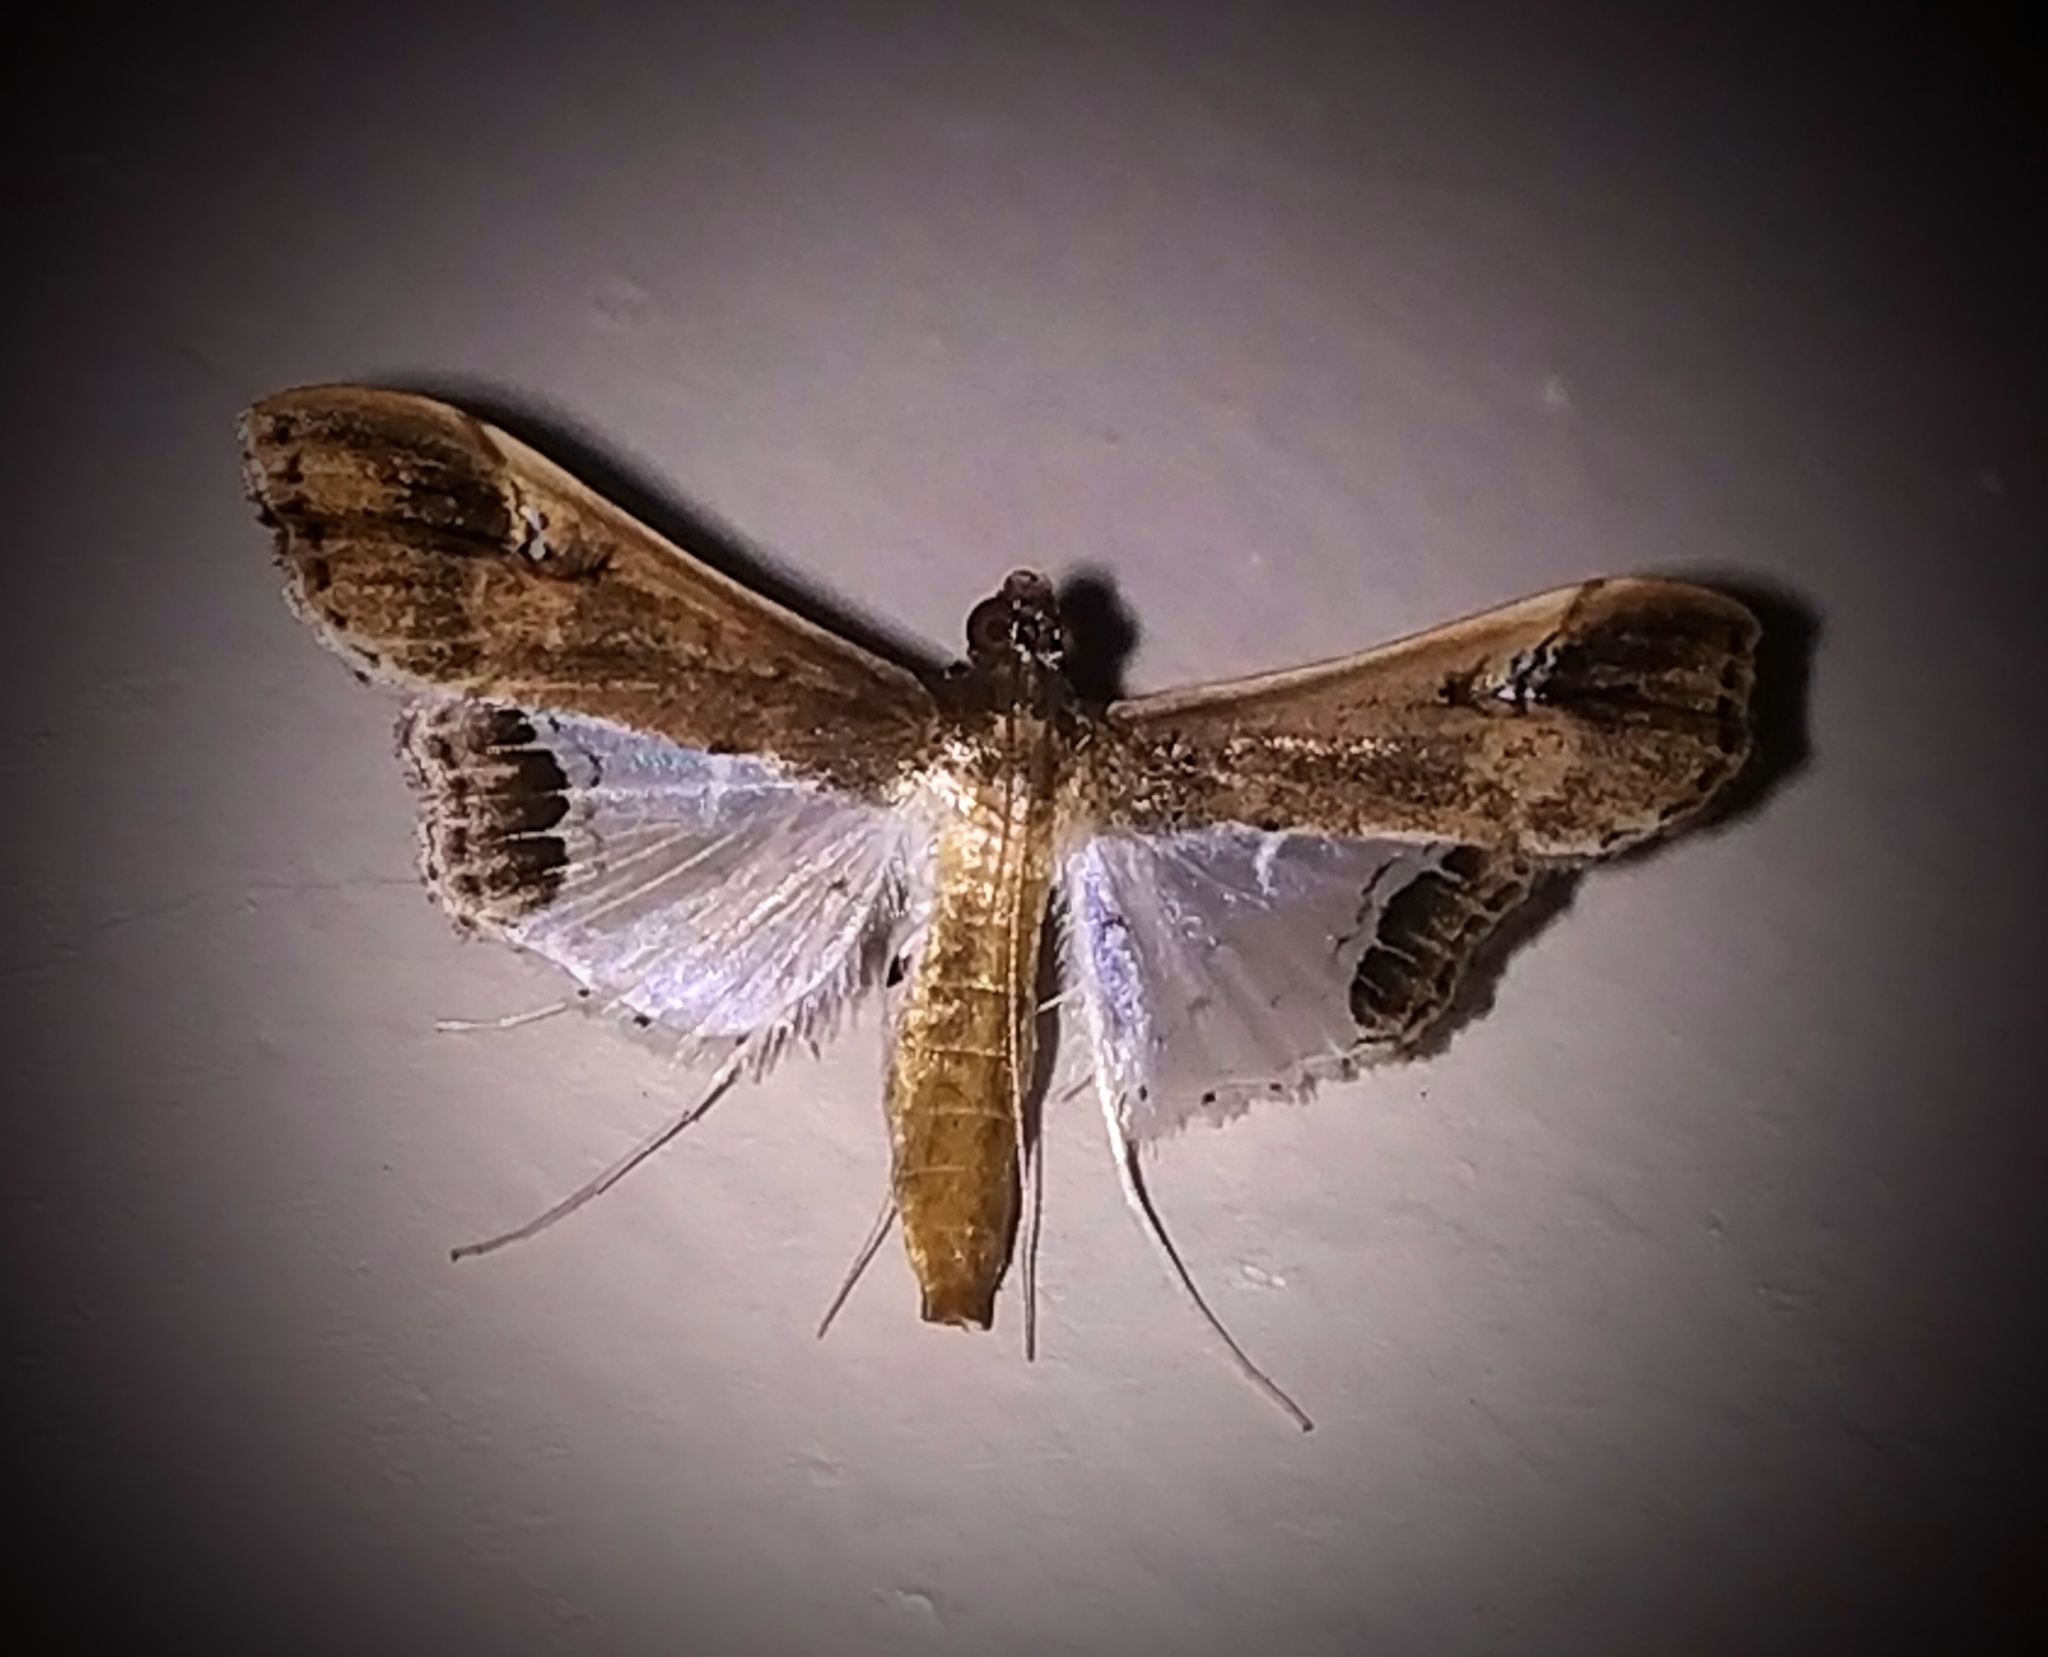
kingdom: Animalia
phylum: Arthropoda
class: Insecta
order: Lepidoptera
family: Crambidae
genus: Maruca
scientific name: Maruca amboinalis
